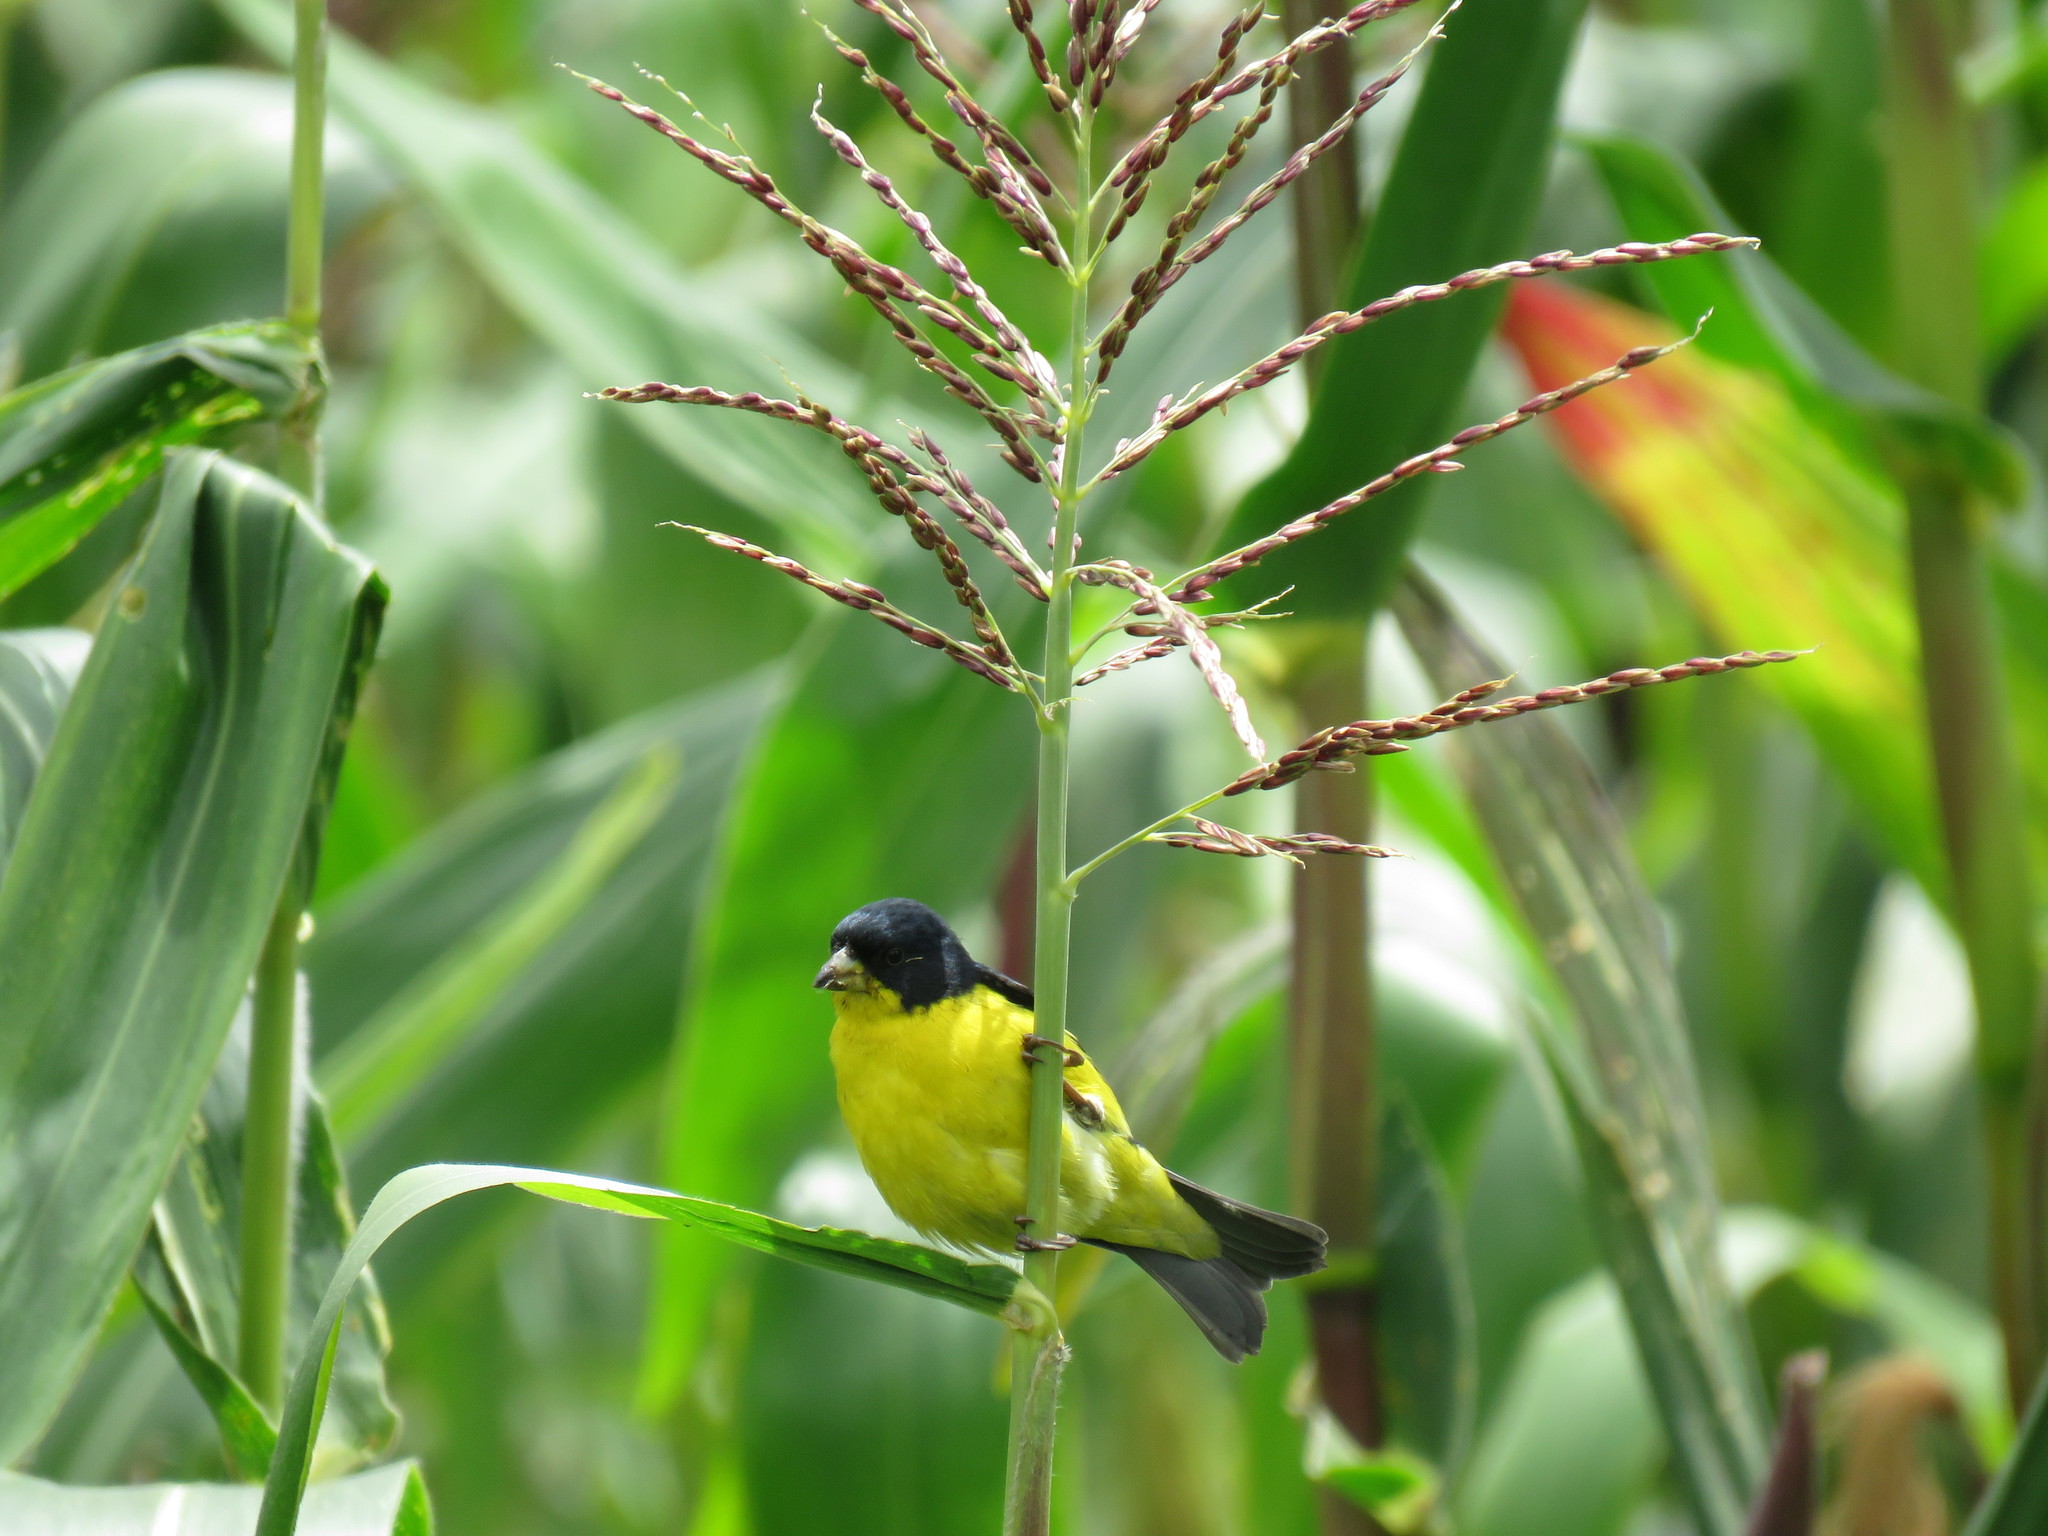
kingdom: Animalia
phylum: Chordata
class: Aves
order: Passeriformes
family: Fringillidae
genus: Spinus
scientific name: Spinus psaltria
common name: Lesser goldfinch
